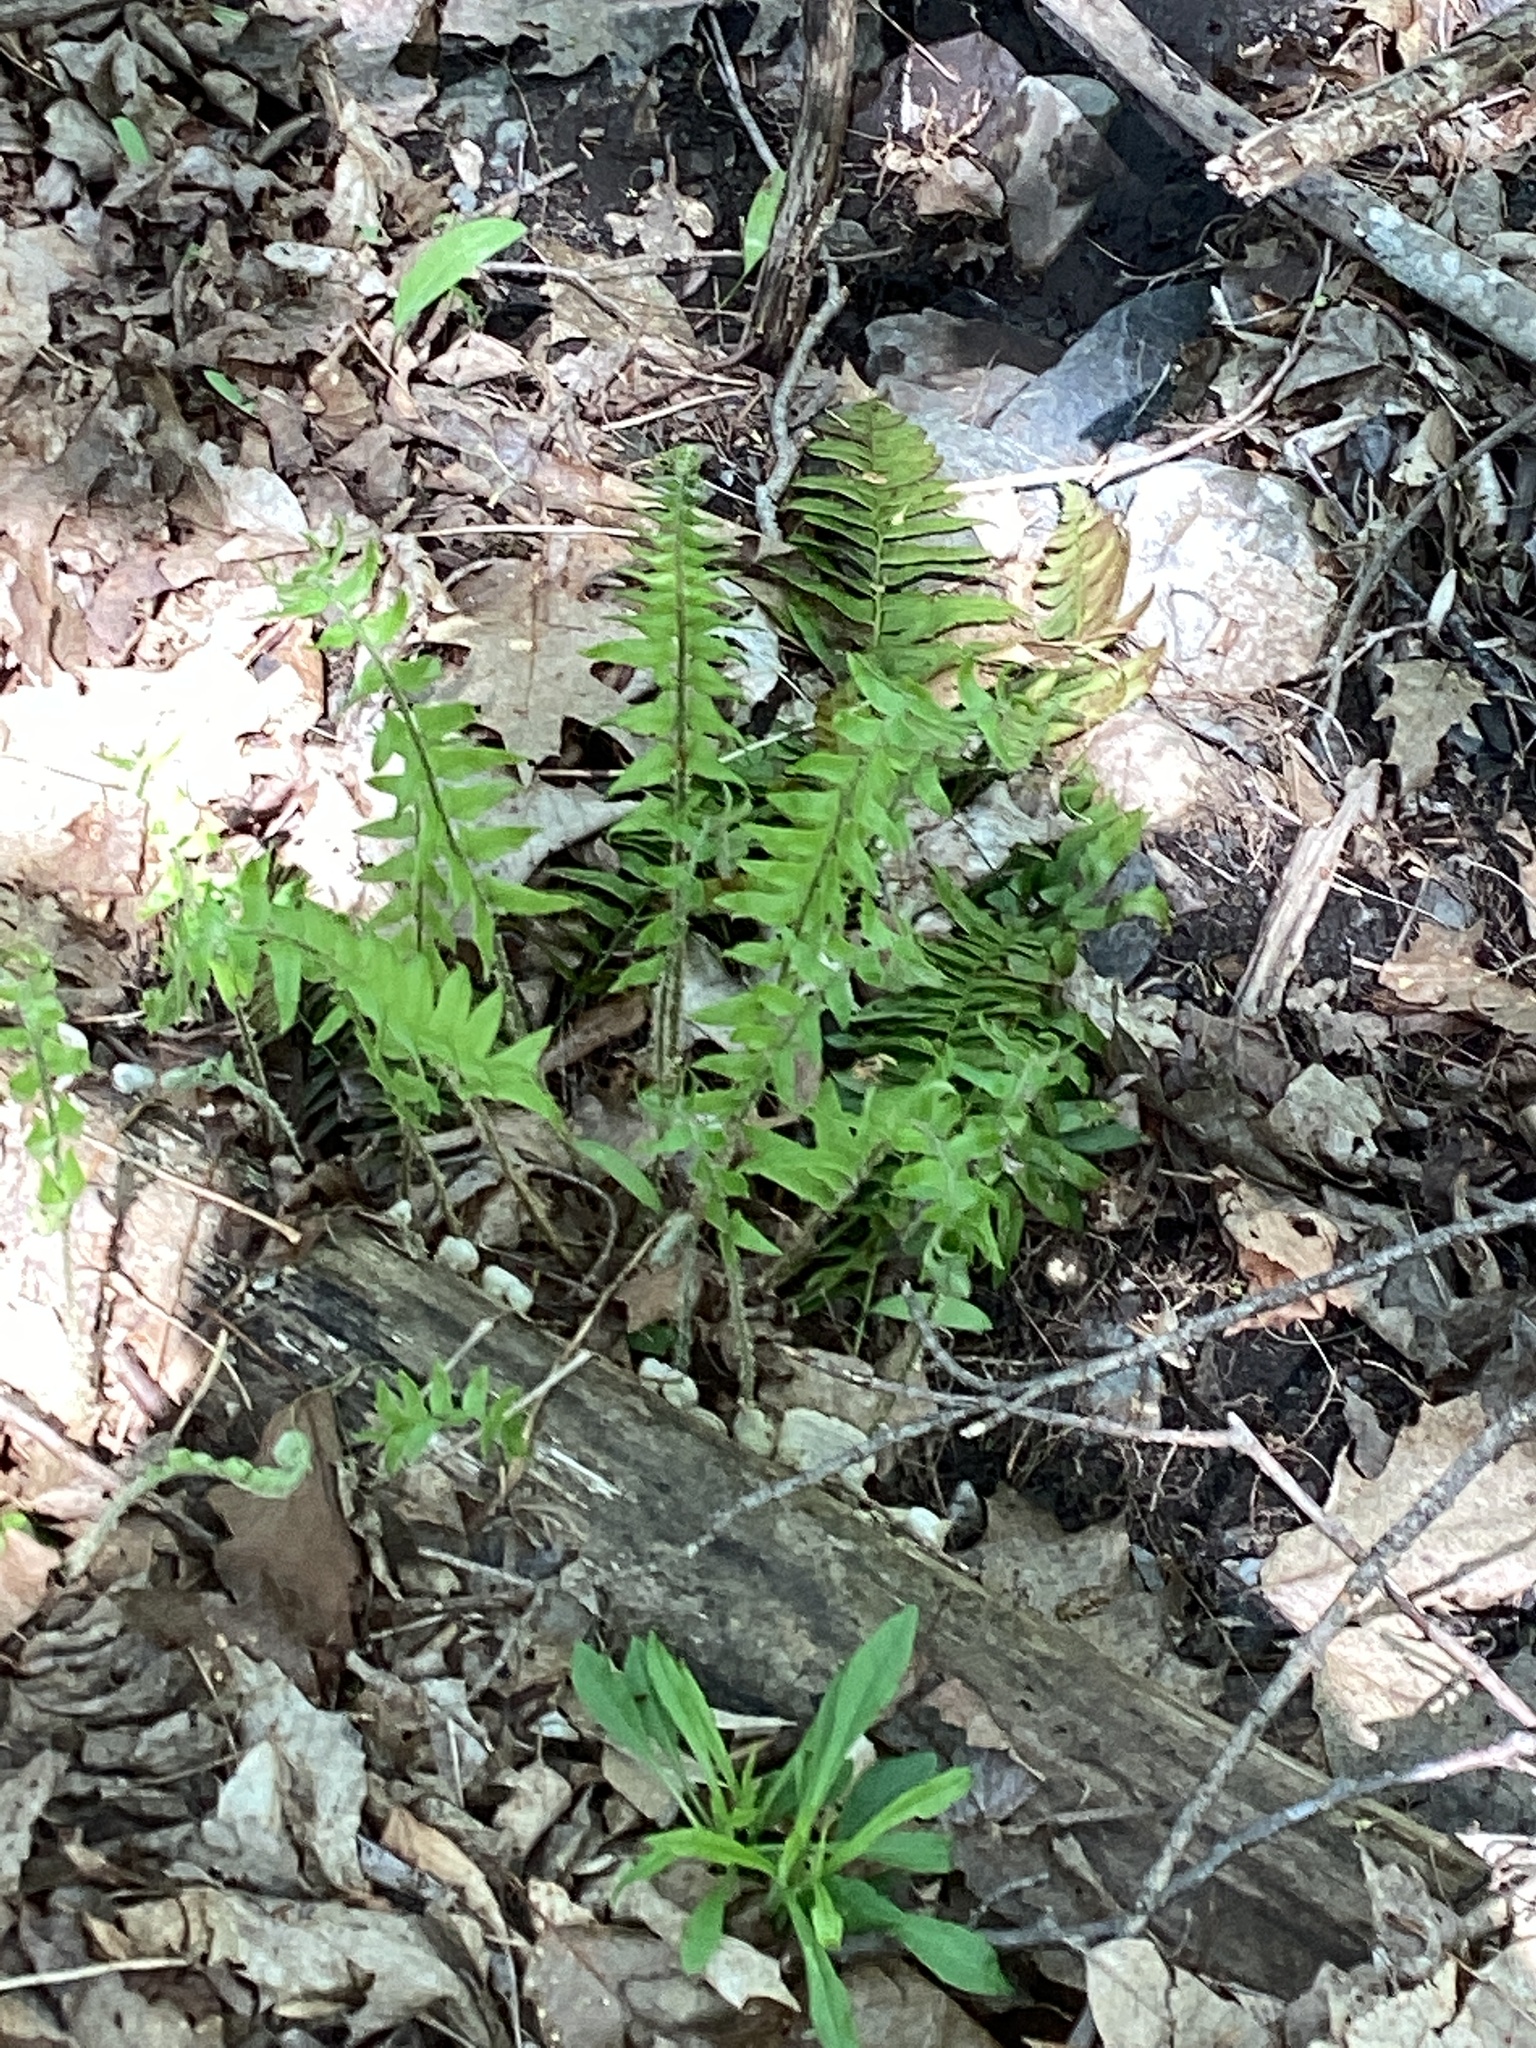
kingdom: Plantae
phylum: Tracheophyta
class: Polypodiopsida
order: Polypodiales
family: Dryopteridaceae
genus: Polystichum
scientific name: Polystichum acrostichoides
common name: Christmas fern
